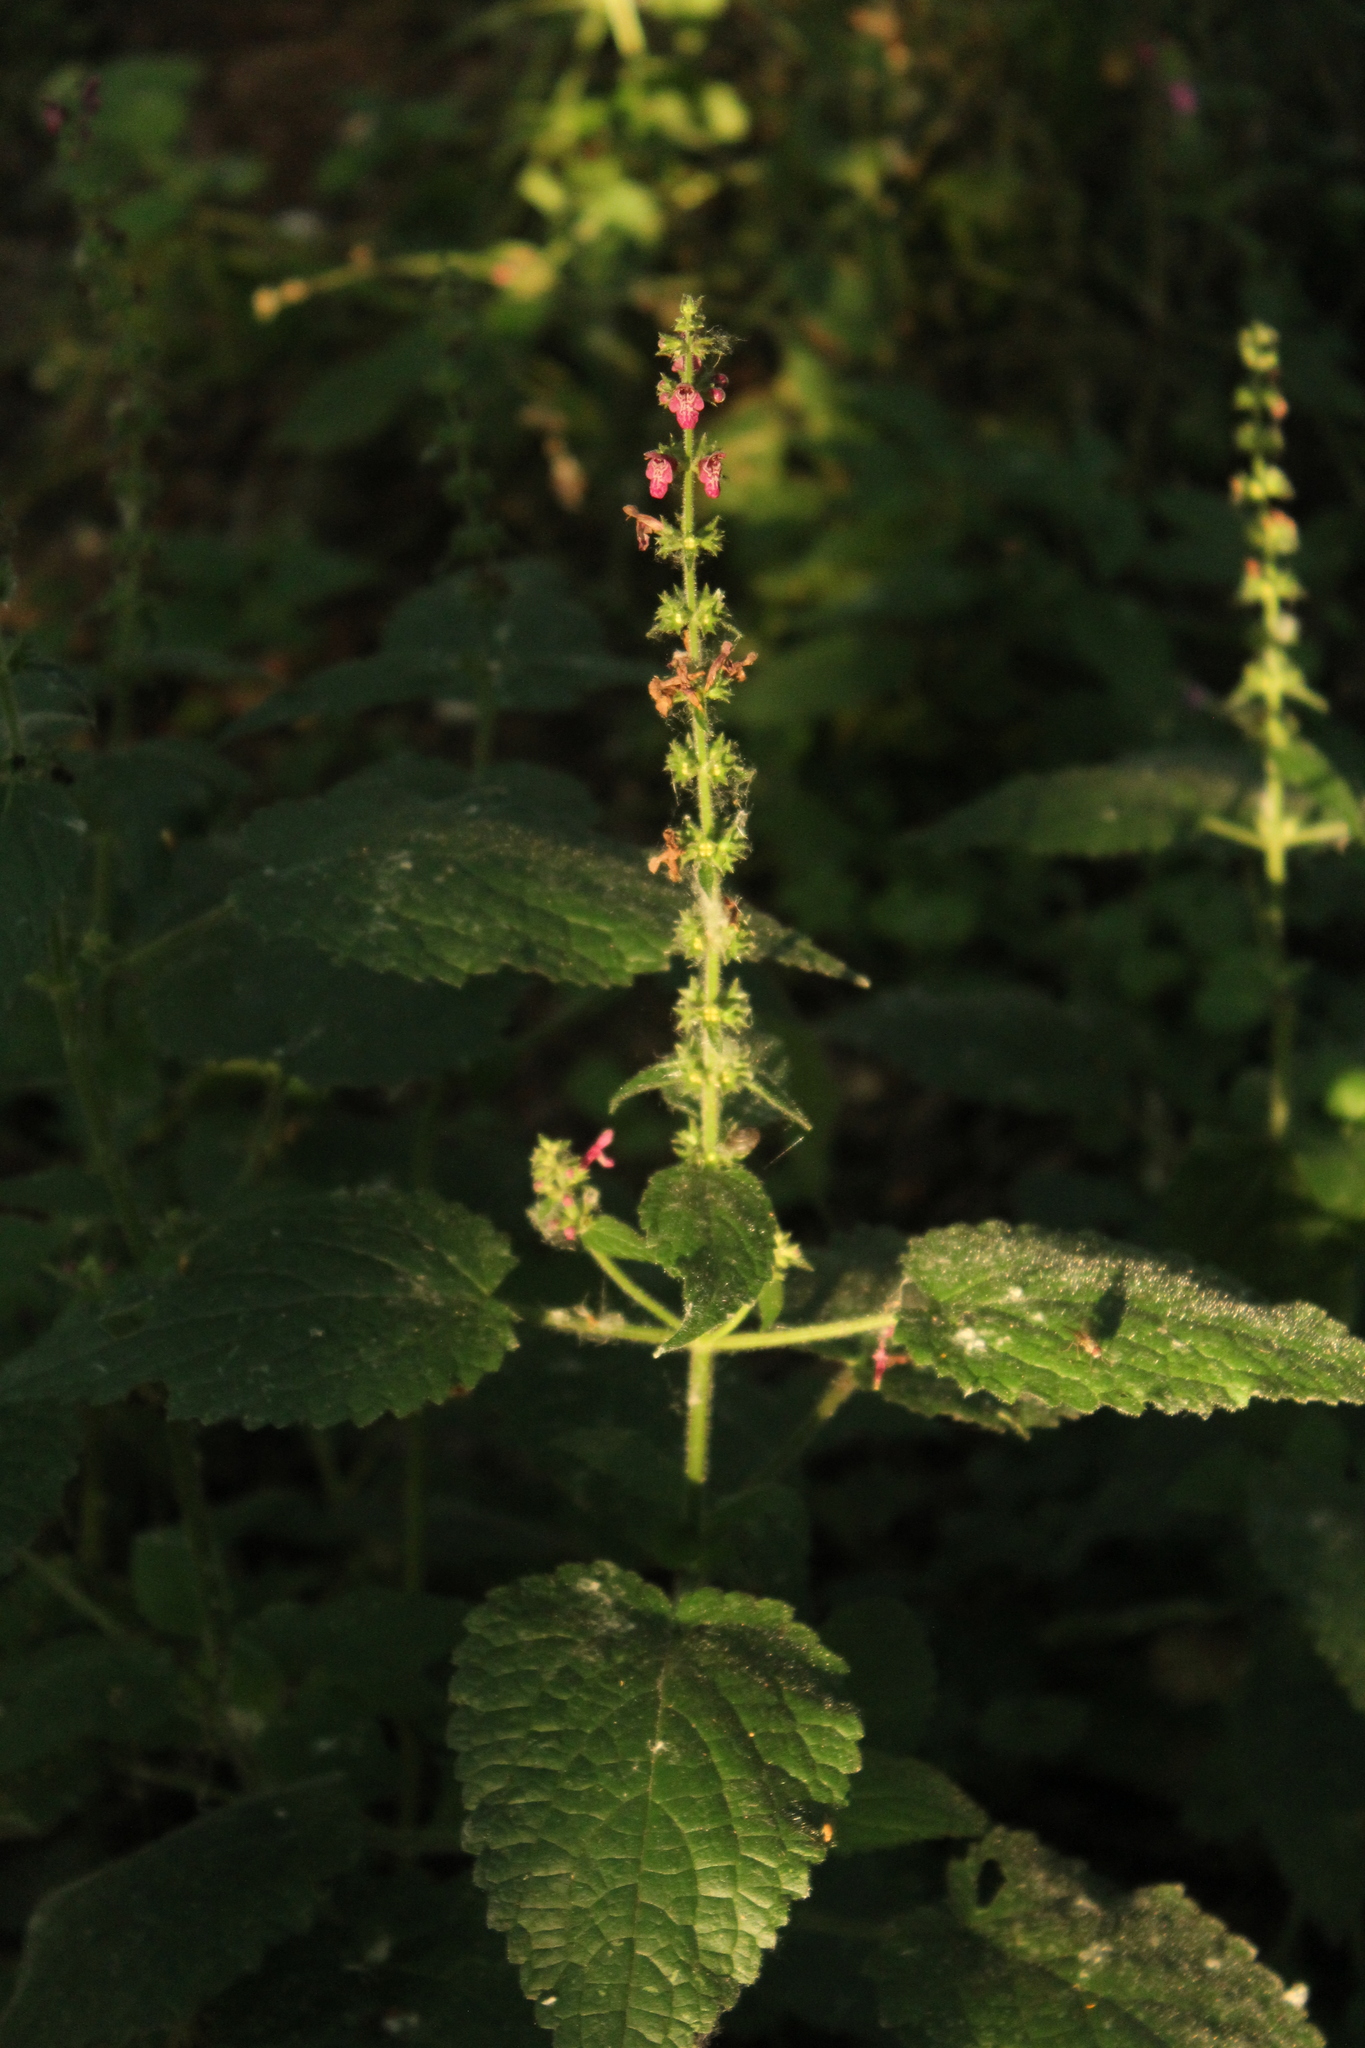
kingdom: Plantae
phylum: Tracheophyta
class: Magnoliopsida
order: Lamiales
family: Lamiaceae
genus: Stachys
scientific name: Stachys sylvatica
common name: Hedge woundwort
